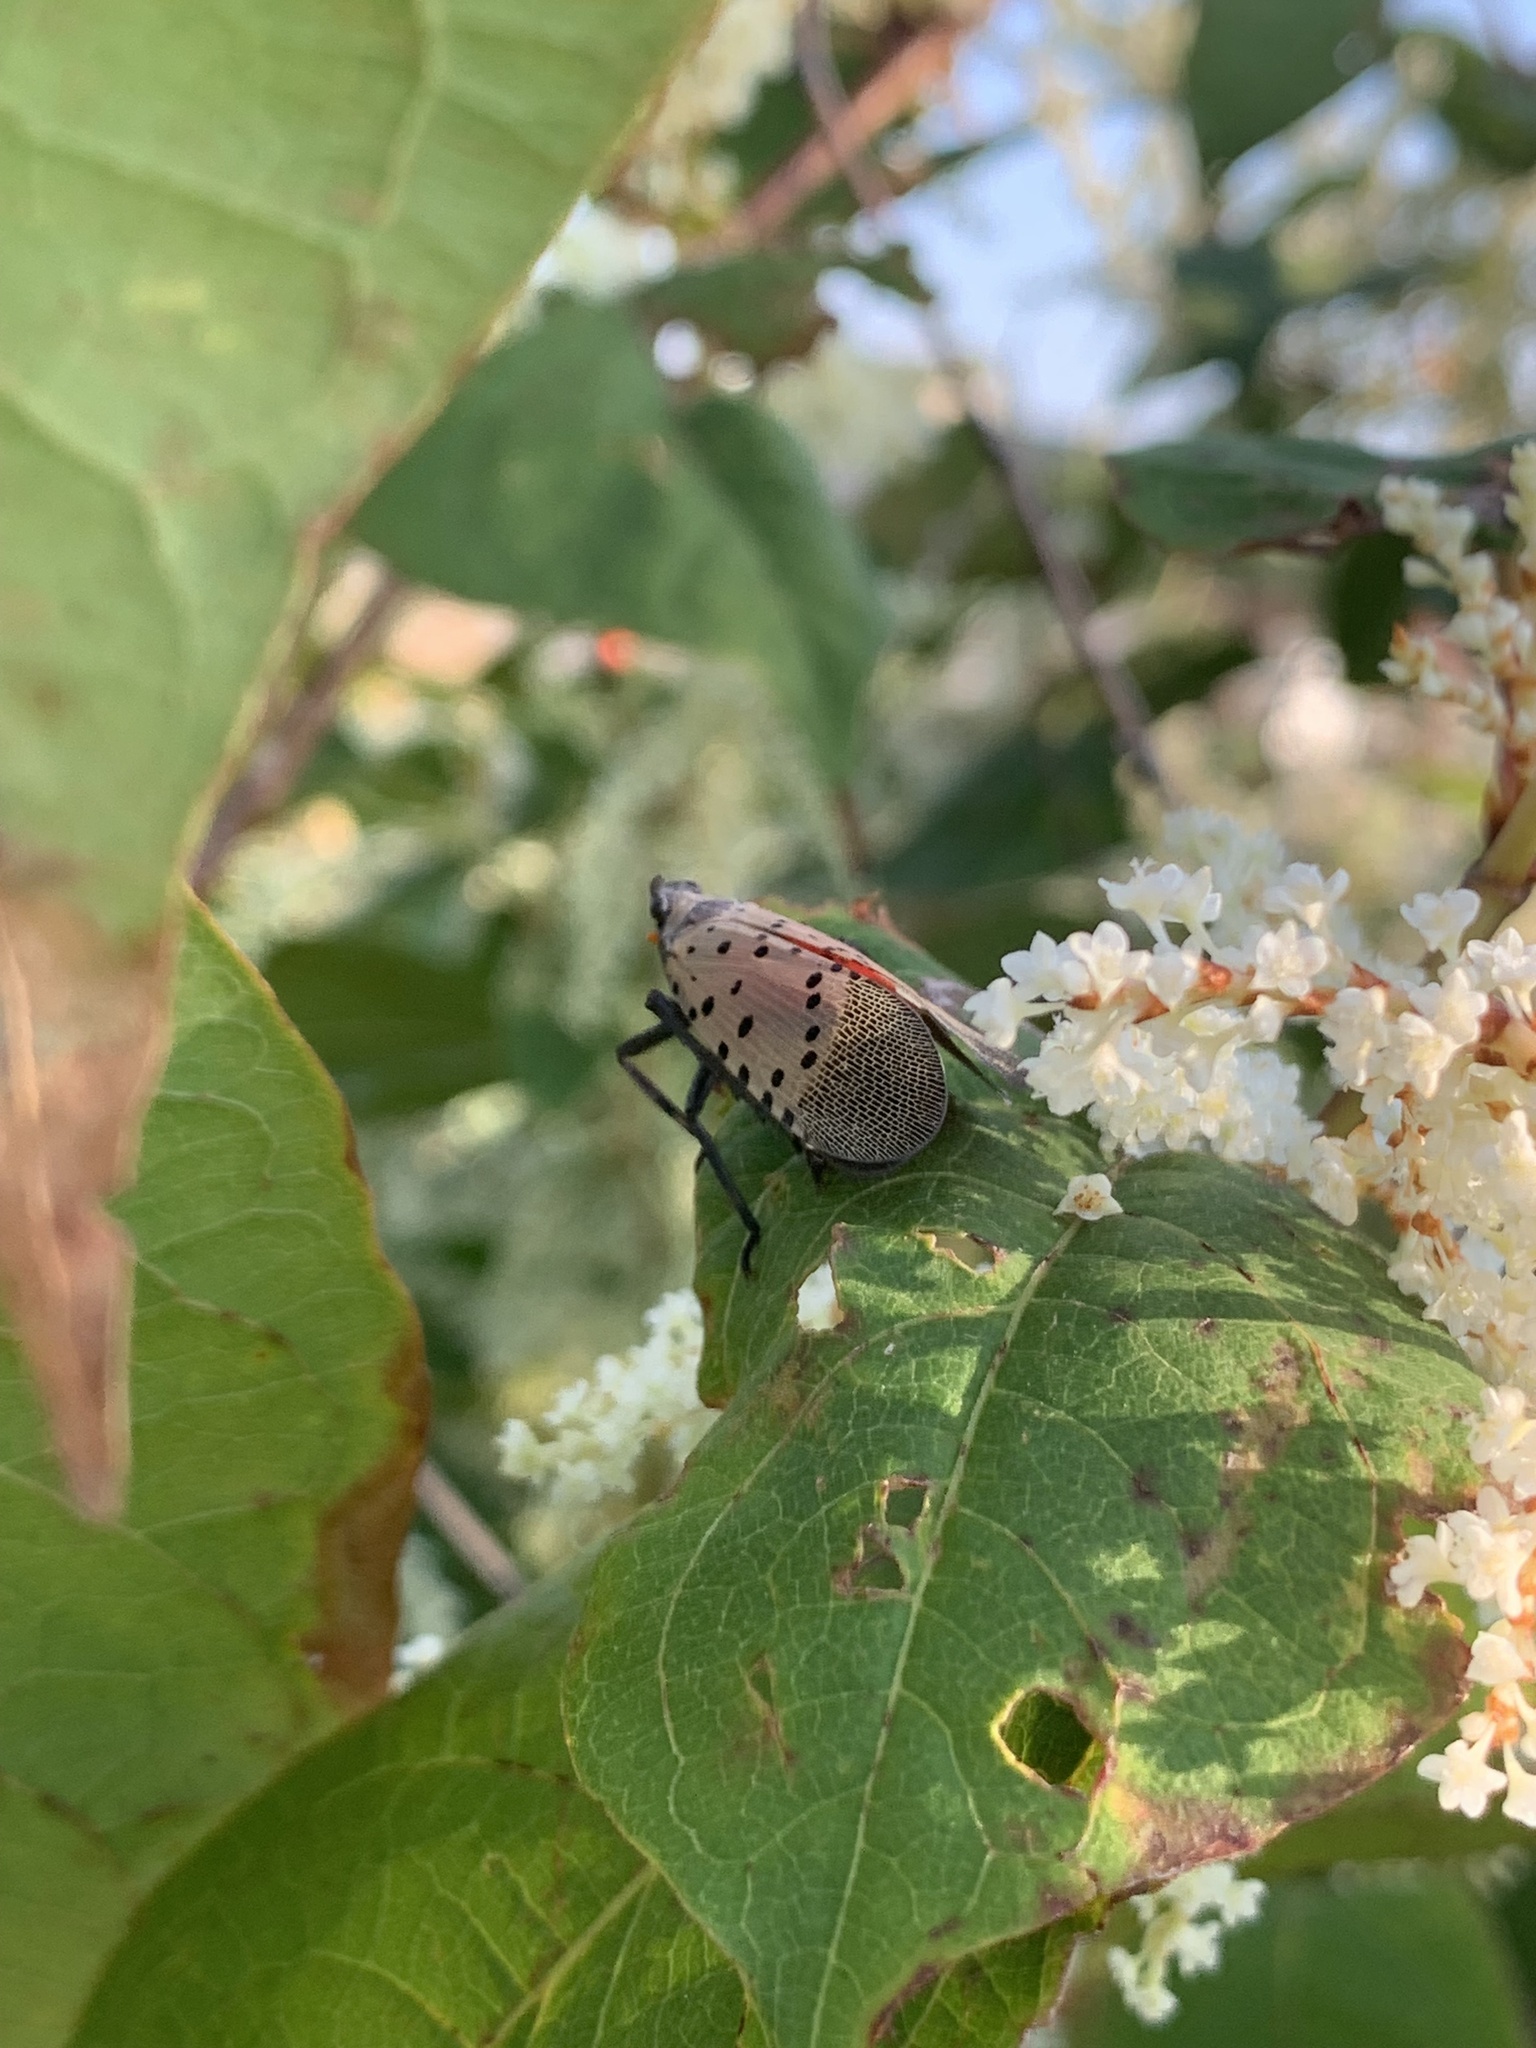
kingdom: Animalia
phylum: Arthropoda
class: Insecta
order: Hemiptera
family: Fulgoridae
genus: Lycorma
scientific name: Lycorma delicatula
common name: Spotted lanternfly
